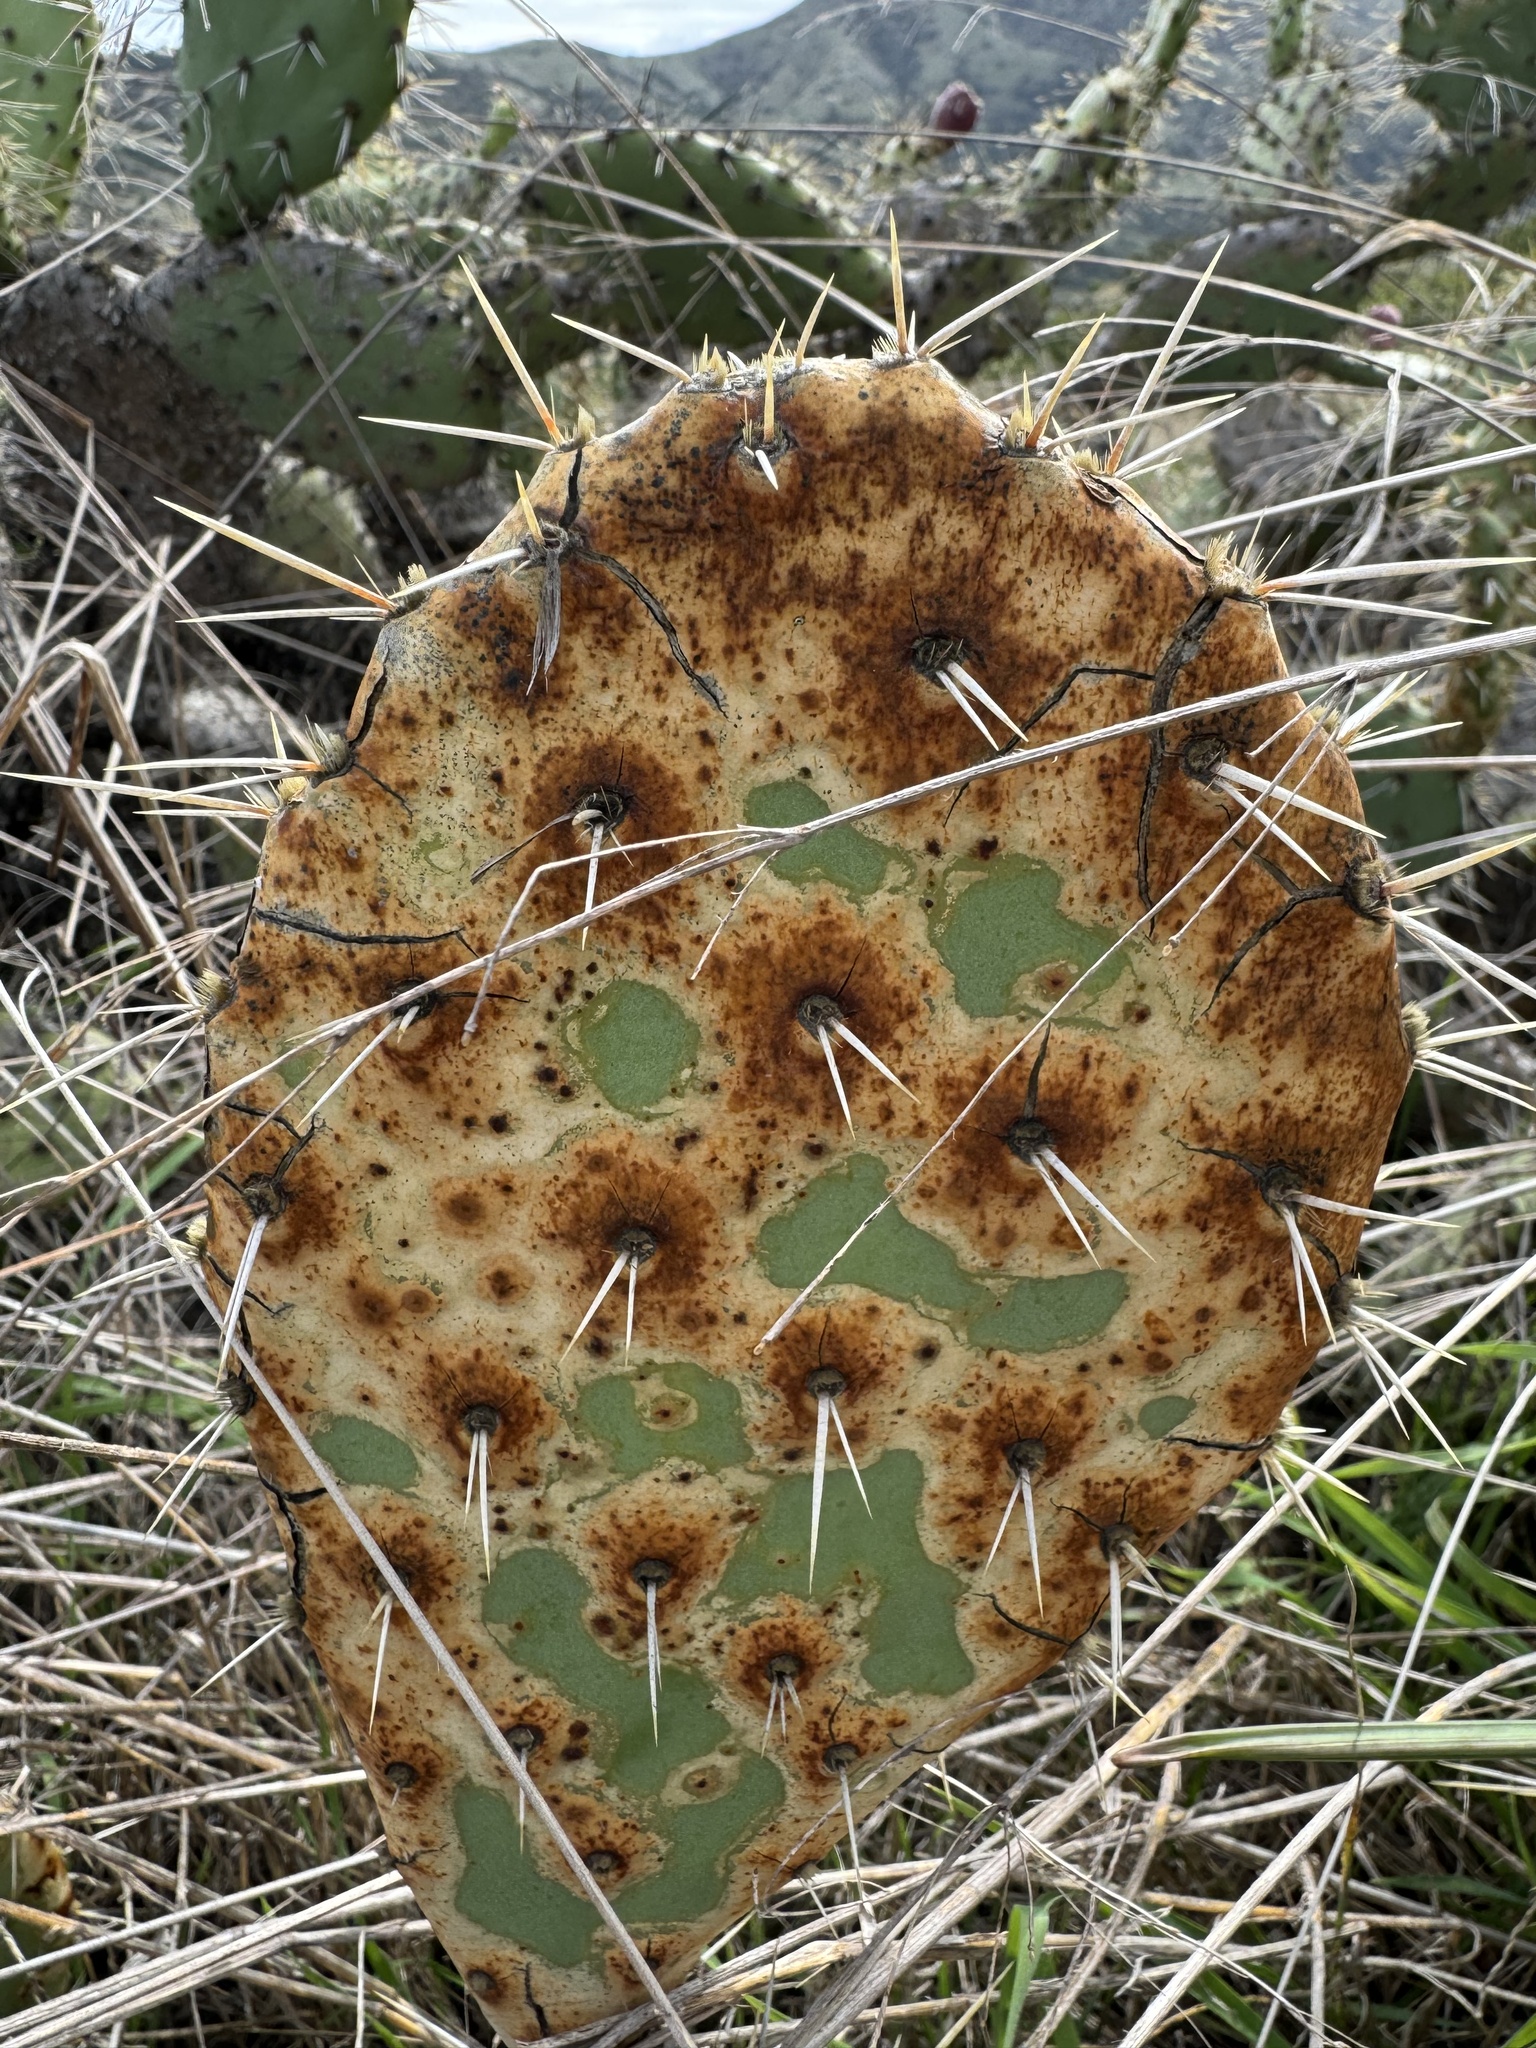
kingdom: Plantae
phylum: Tracheophyta
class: Magnoliopsida
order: Caryophyllales
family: Cactaceae
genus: Opuntia
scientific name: Opuntia littoralis
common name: Coastal prickly-pear
